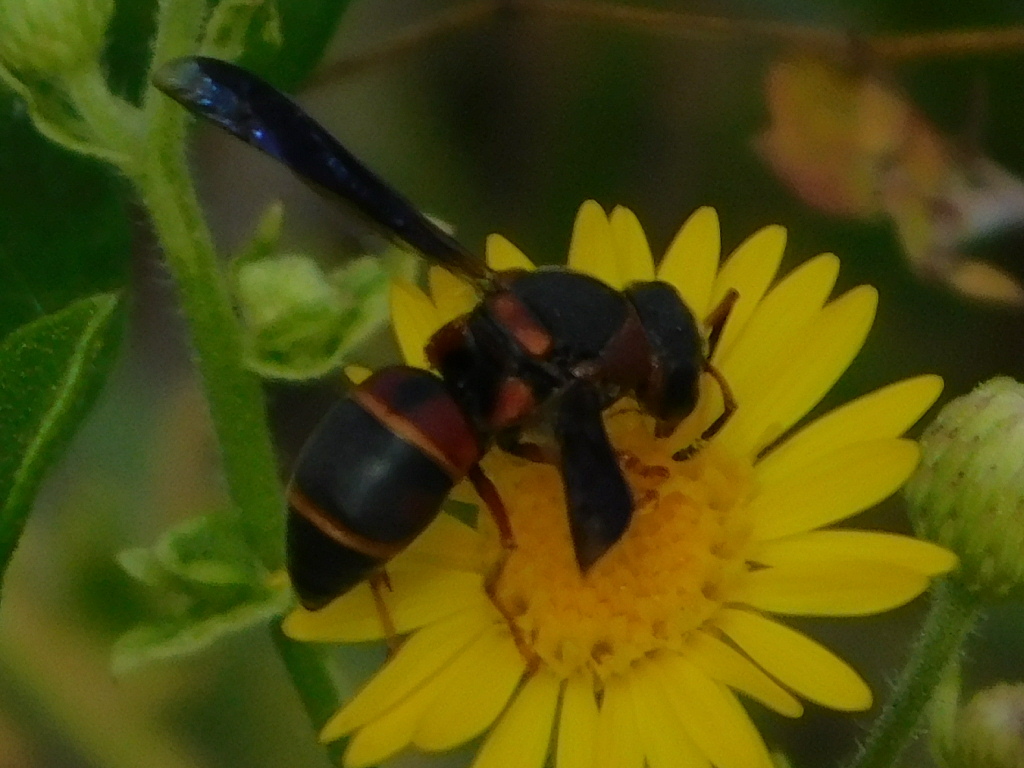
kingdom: Animalia
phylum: Arthropoda
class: Insecta
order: Hymenoptera
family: Eumenidae
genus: Euodynerus
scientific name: Euodynerus castigatus
